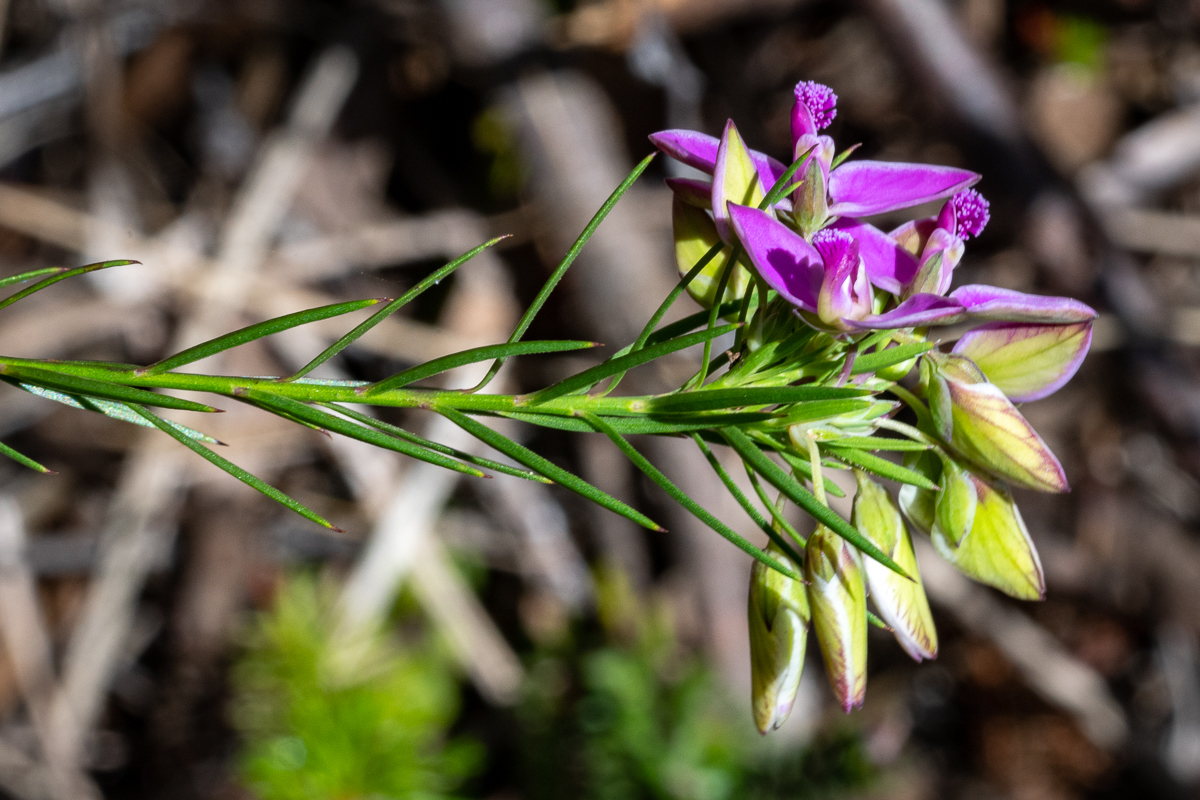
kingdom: Plantae
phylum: Tracheophyta
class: Magnoliopsida
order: Fabales
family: Polygalaceae
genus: Polygala
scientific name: Polygala umbellata
